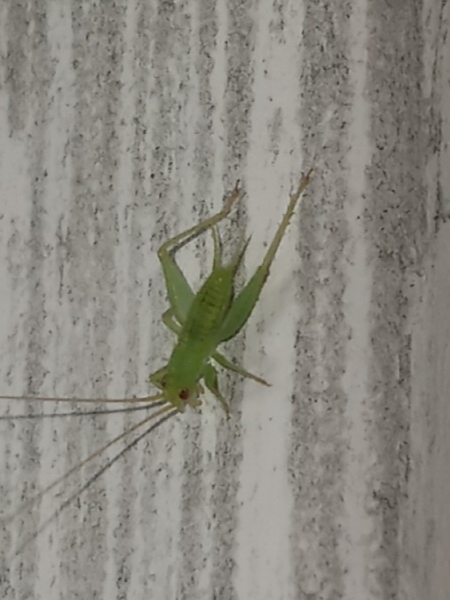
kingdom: Animalia
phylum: Arthropoda
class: Insecta
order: Orthoptera
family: Trigonidiidae
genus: Cyrtoxipha
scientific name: Cyrtoxipha columbiana
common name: Columbian trig
